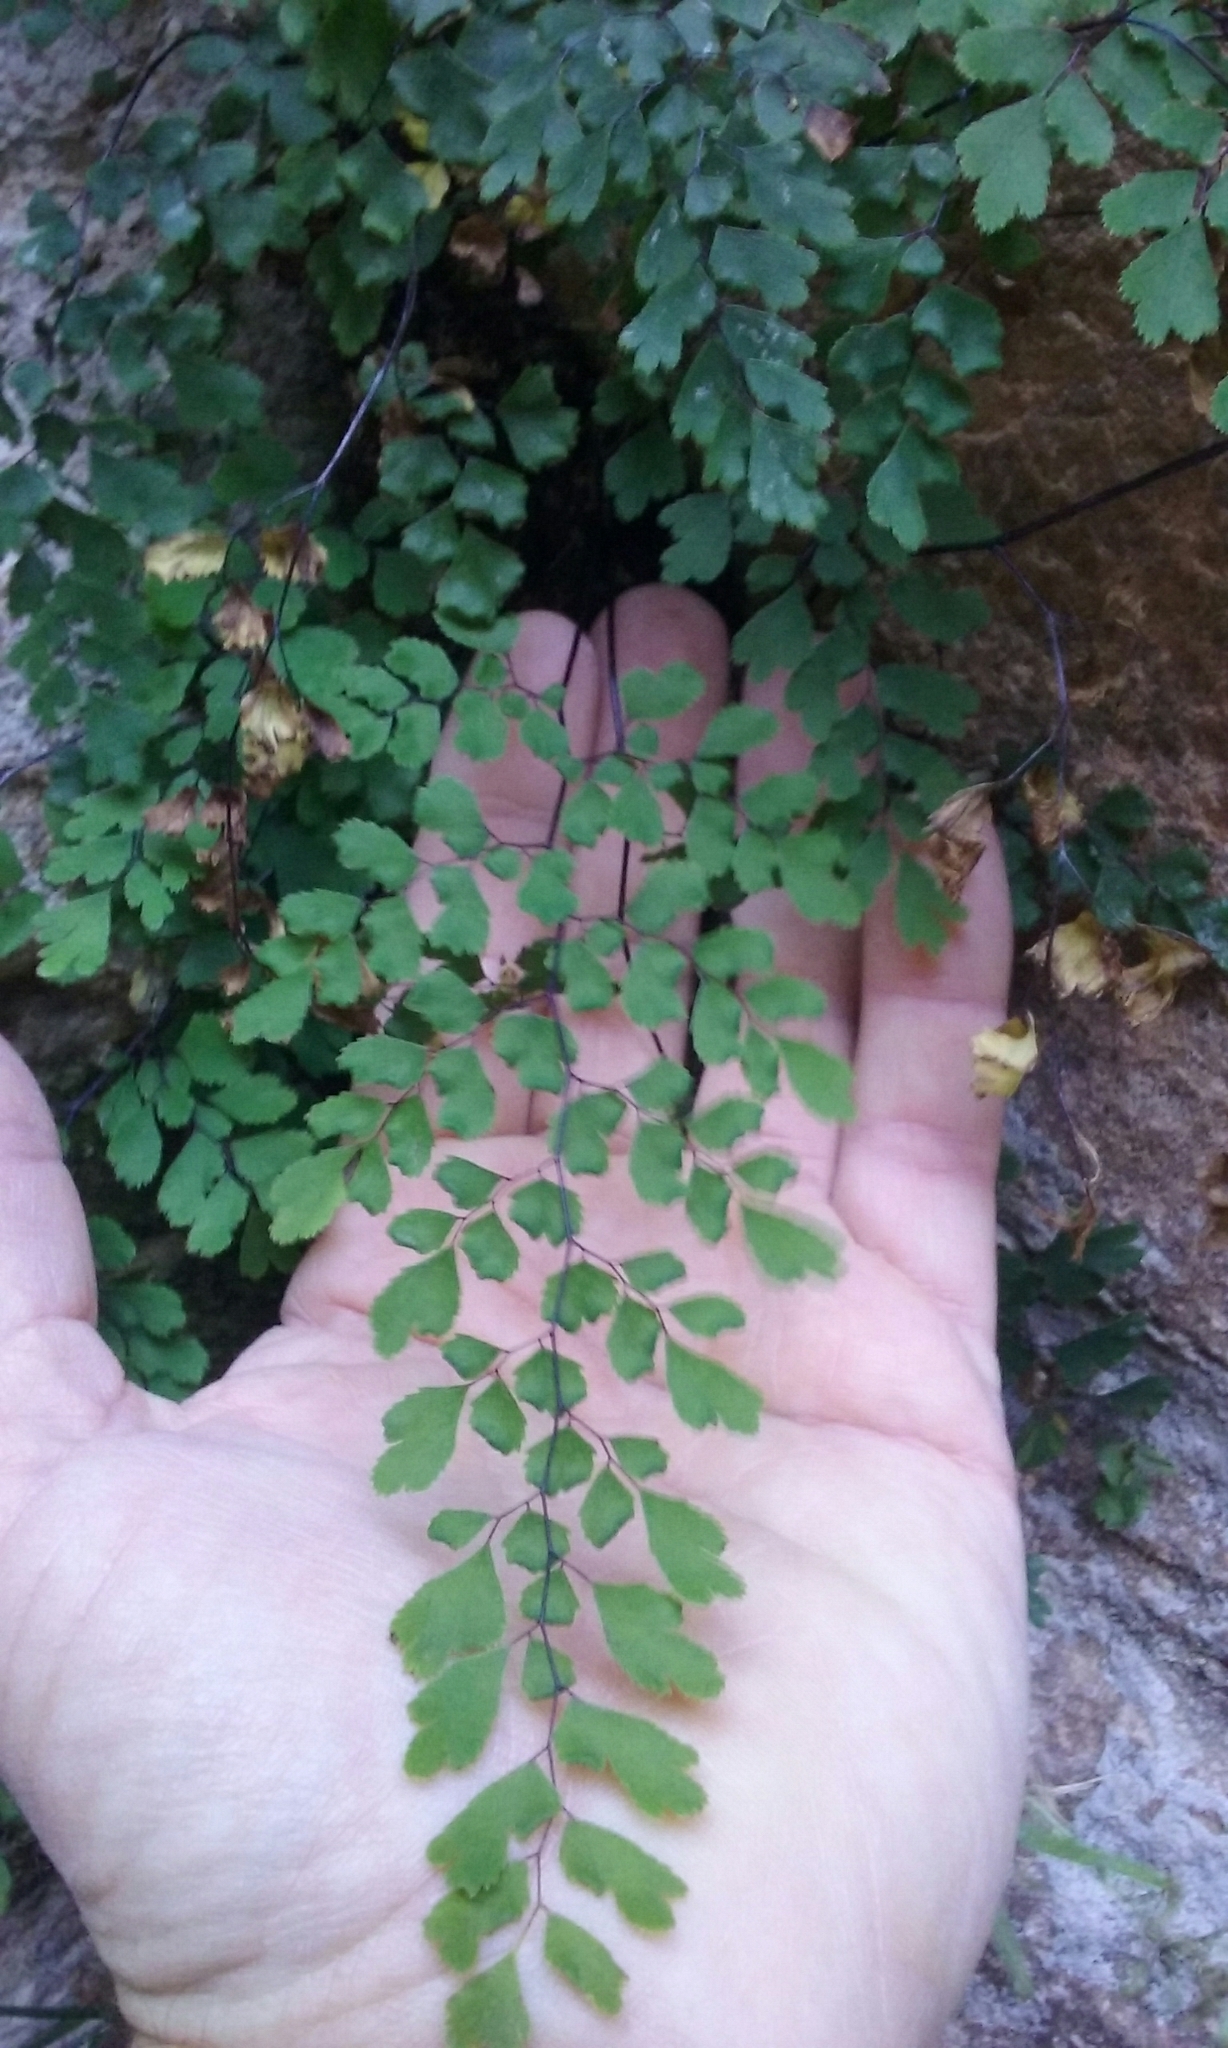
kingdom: Plantae
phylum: Tracheophyta
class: Polypodiopsida
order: Polypodiales
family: Pteridaceae
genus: Adiantum
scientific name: Adiantum capillus-veneris
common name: Maidenhair fern
